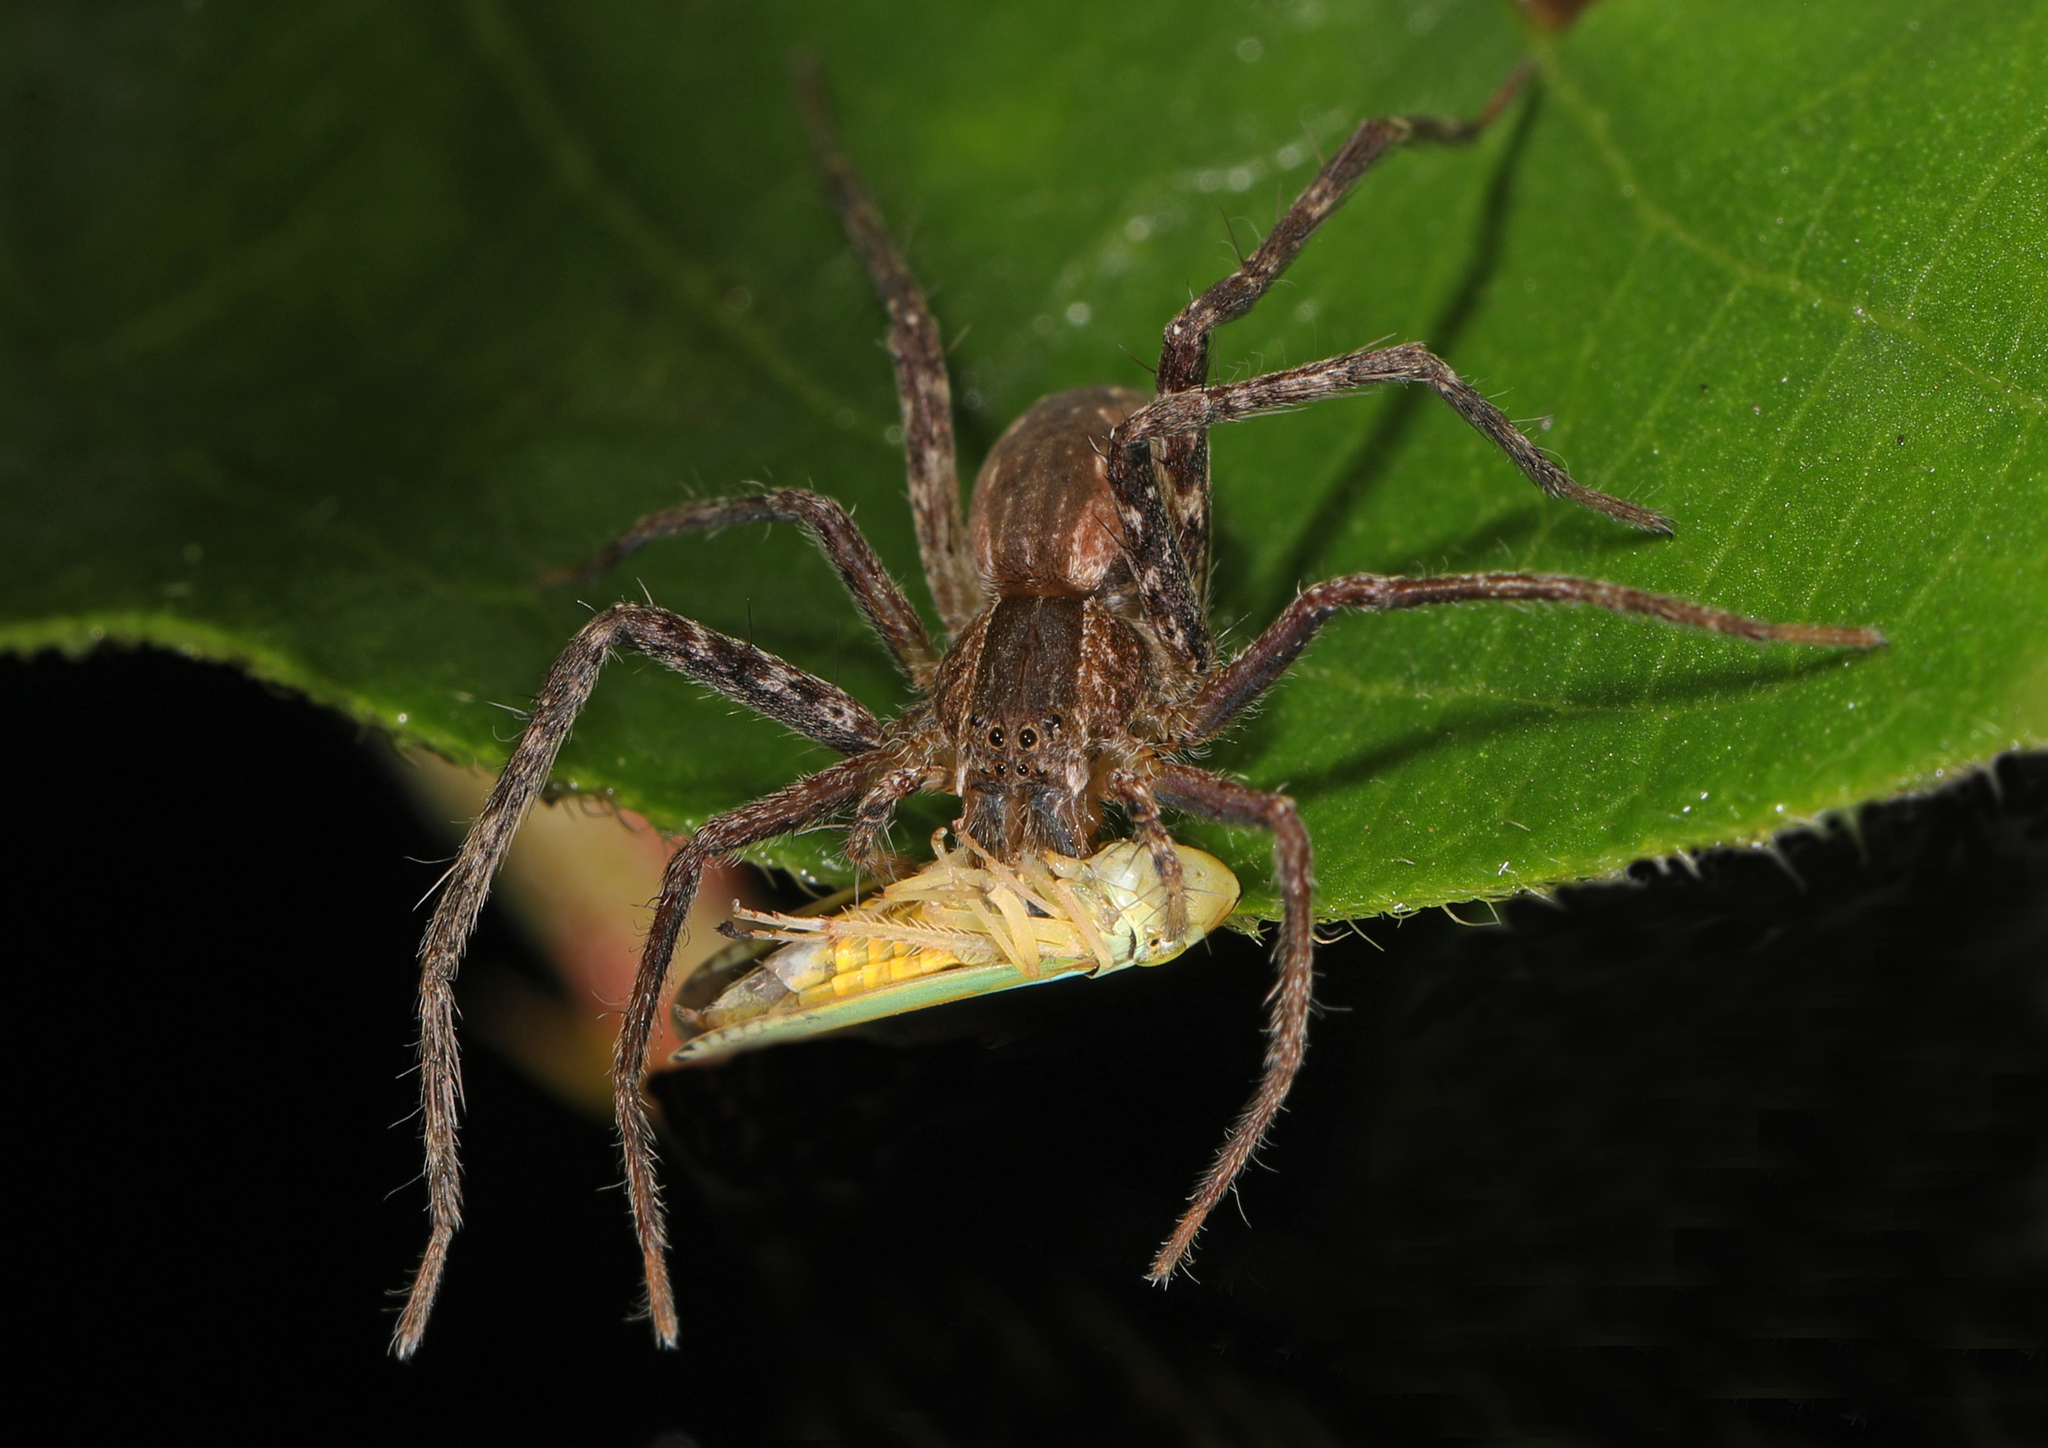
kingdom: Animalia
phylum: Arthropoda
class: Arachnida
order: Araneae
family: Pisauridae
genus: Pisaurina
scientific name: Pisaurina mira
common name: American nursery web spider
